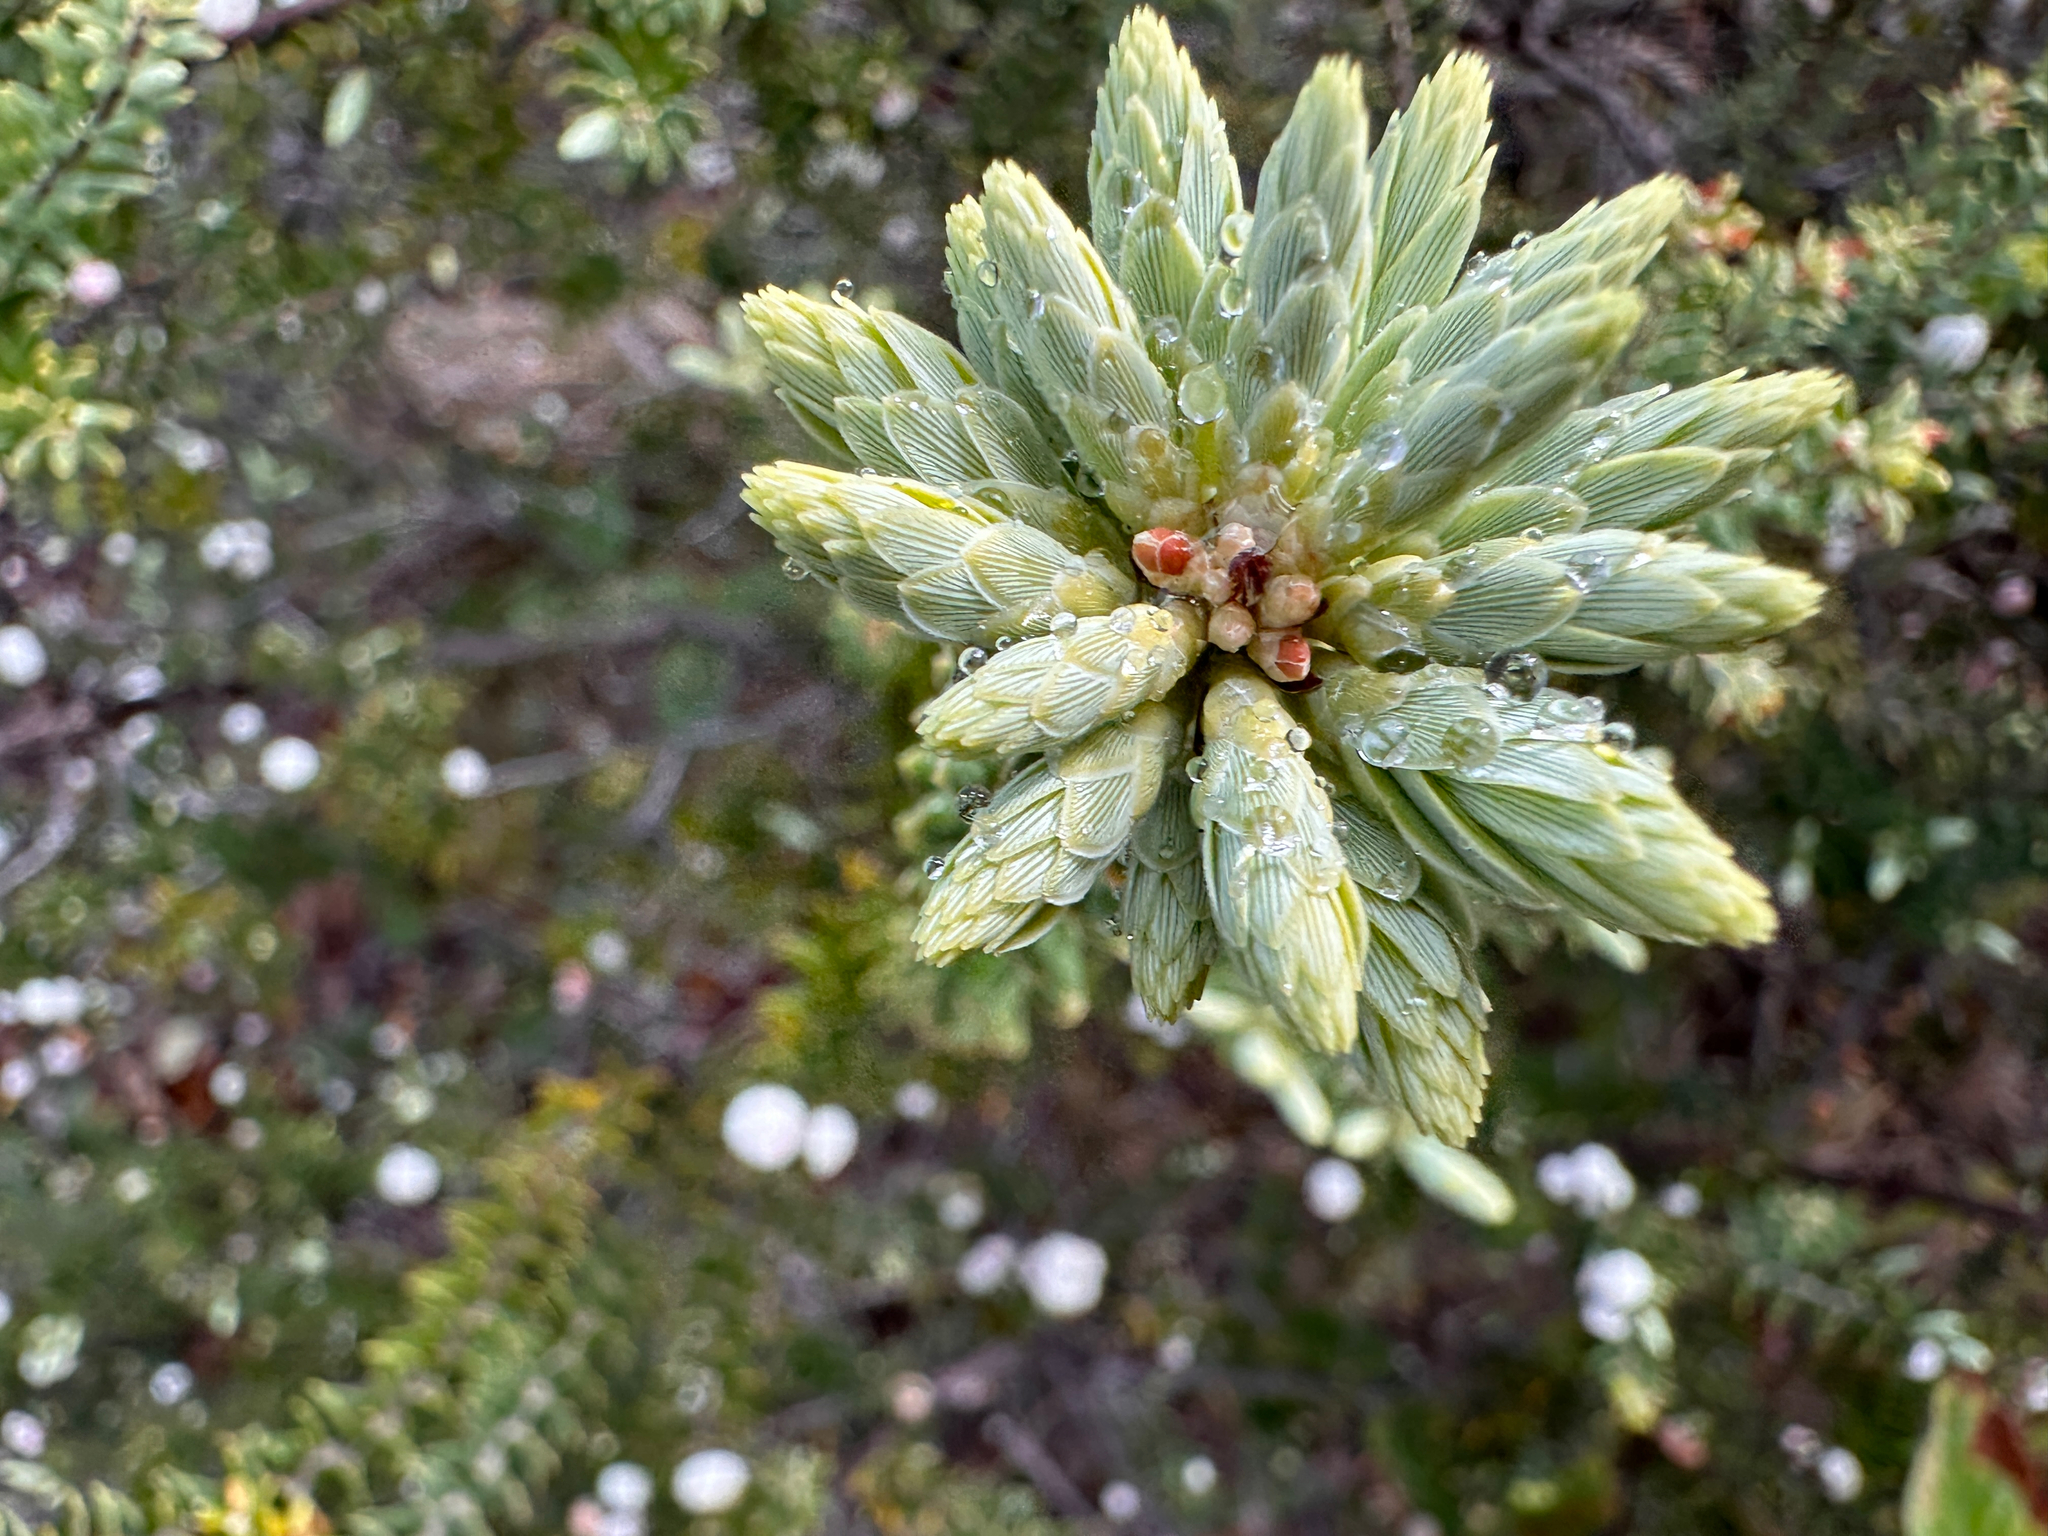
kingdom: Plantae
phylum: Tracheophyta
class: Magnoliopsida
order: Ericales
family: Ericaceae
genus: Leptecophylla
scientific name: Leptecophylla tameiameiae
